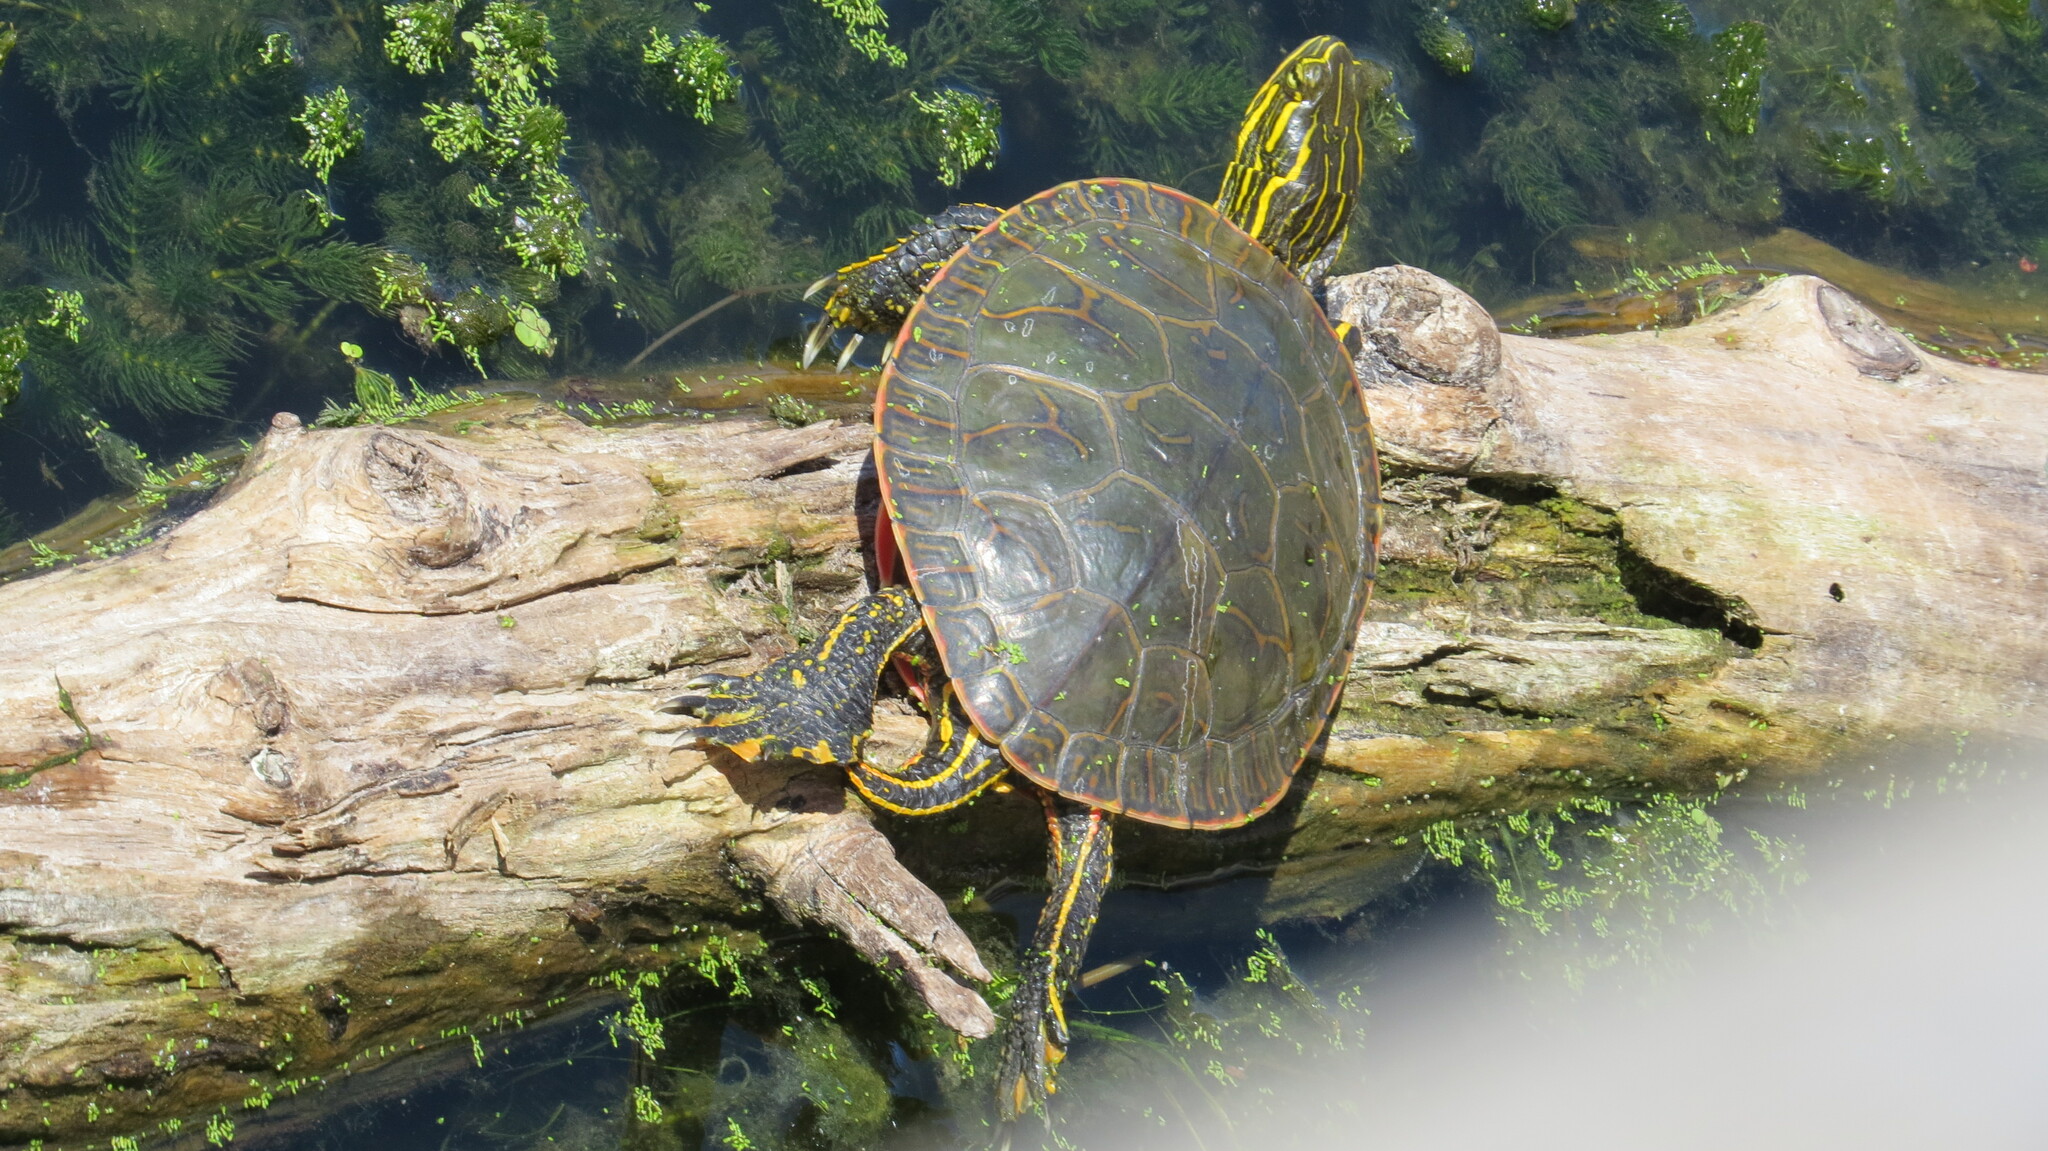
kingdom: Animalia
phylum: Chordata
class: Testudines
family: Emydidae
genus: Chrysemys
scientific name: Chrysemys picta
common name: Painted turtle
